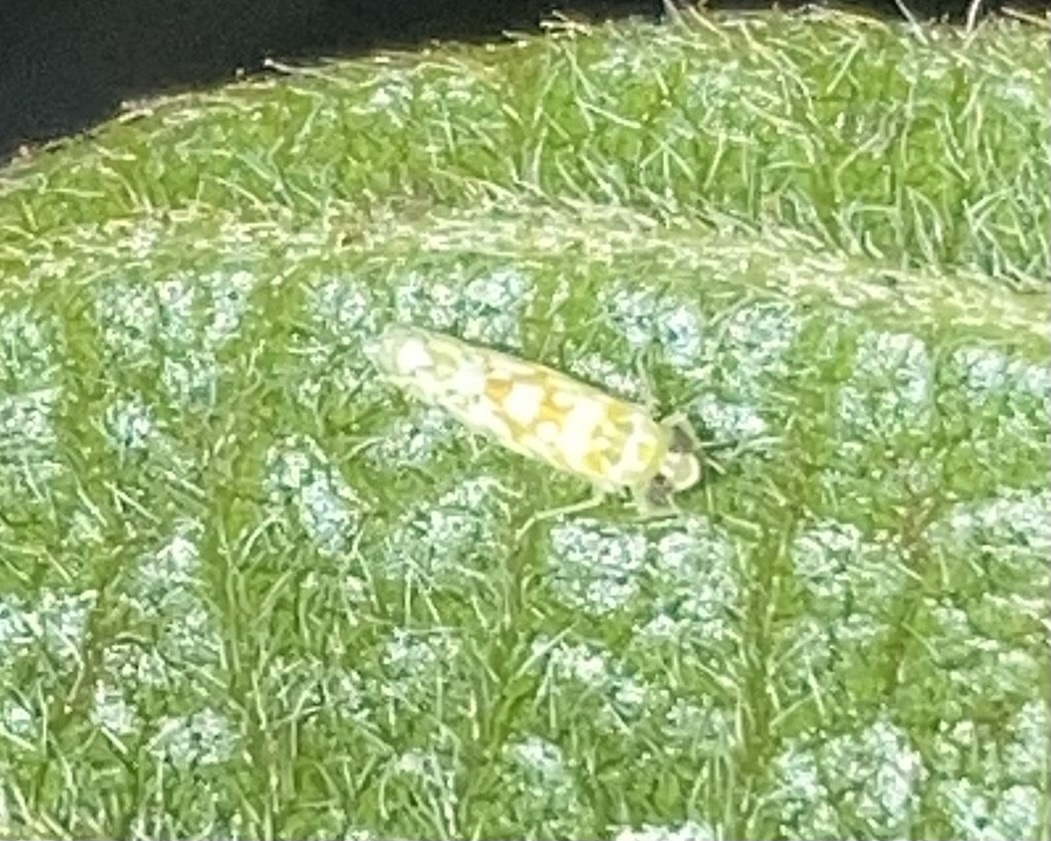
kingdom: Animalia
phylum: Arthropoda
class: Insecta
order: Hemiptera
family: Cicadellidae
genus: Protalebra
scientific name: Protalebra nexa
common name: Leafhopper
